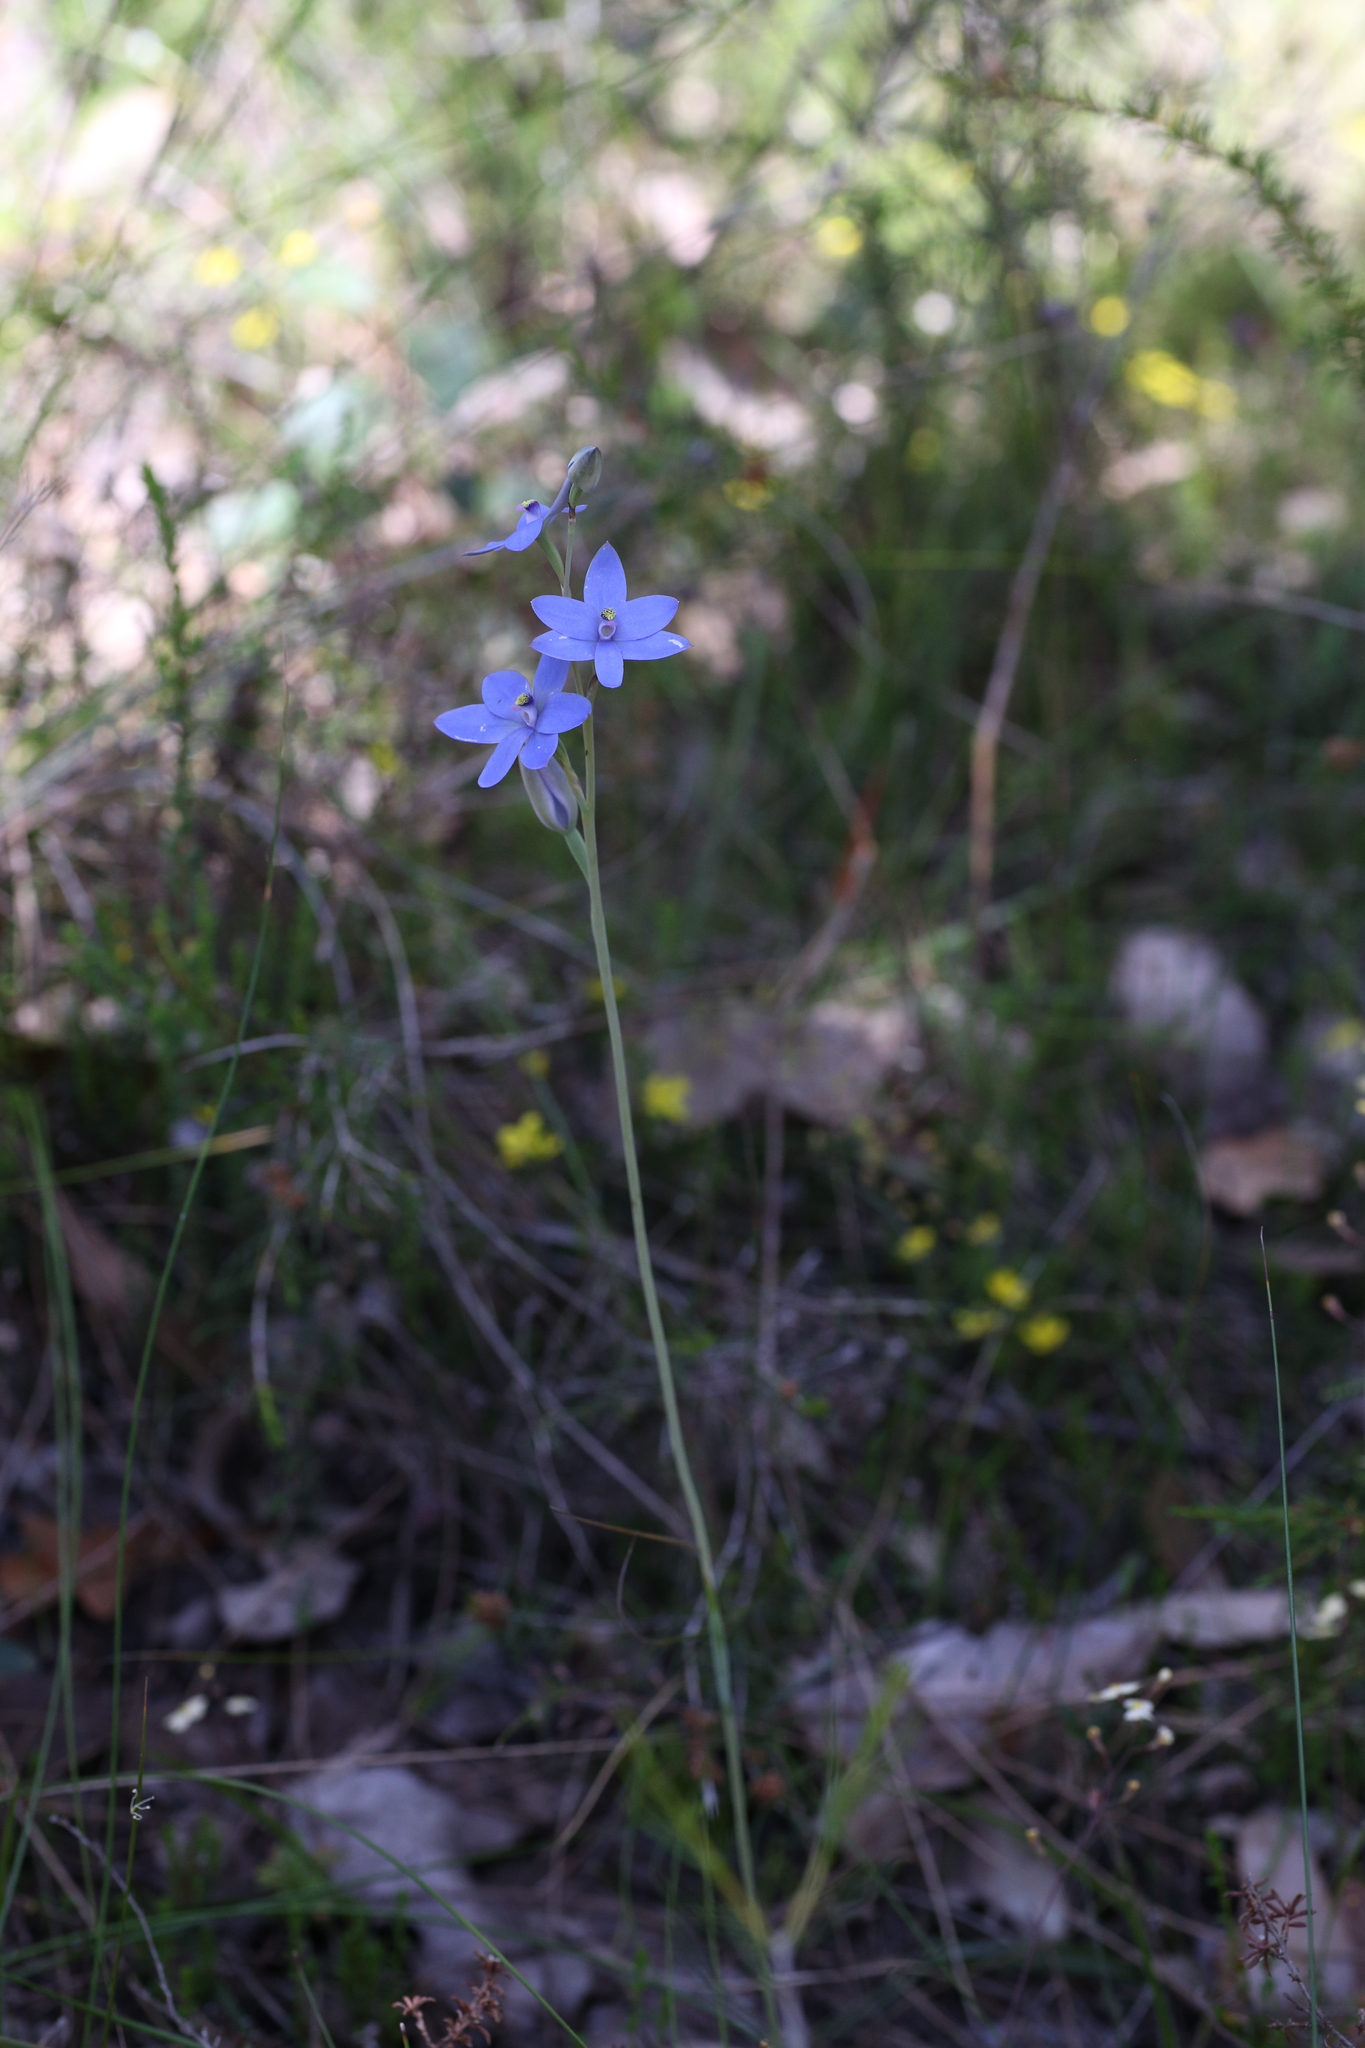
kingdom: Plantae
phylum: Tracheophyta
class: Liliopsida
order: Asparagales
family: Orchidaceae
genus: Thelymitra
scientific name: Thelymitra crinita
